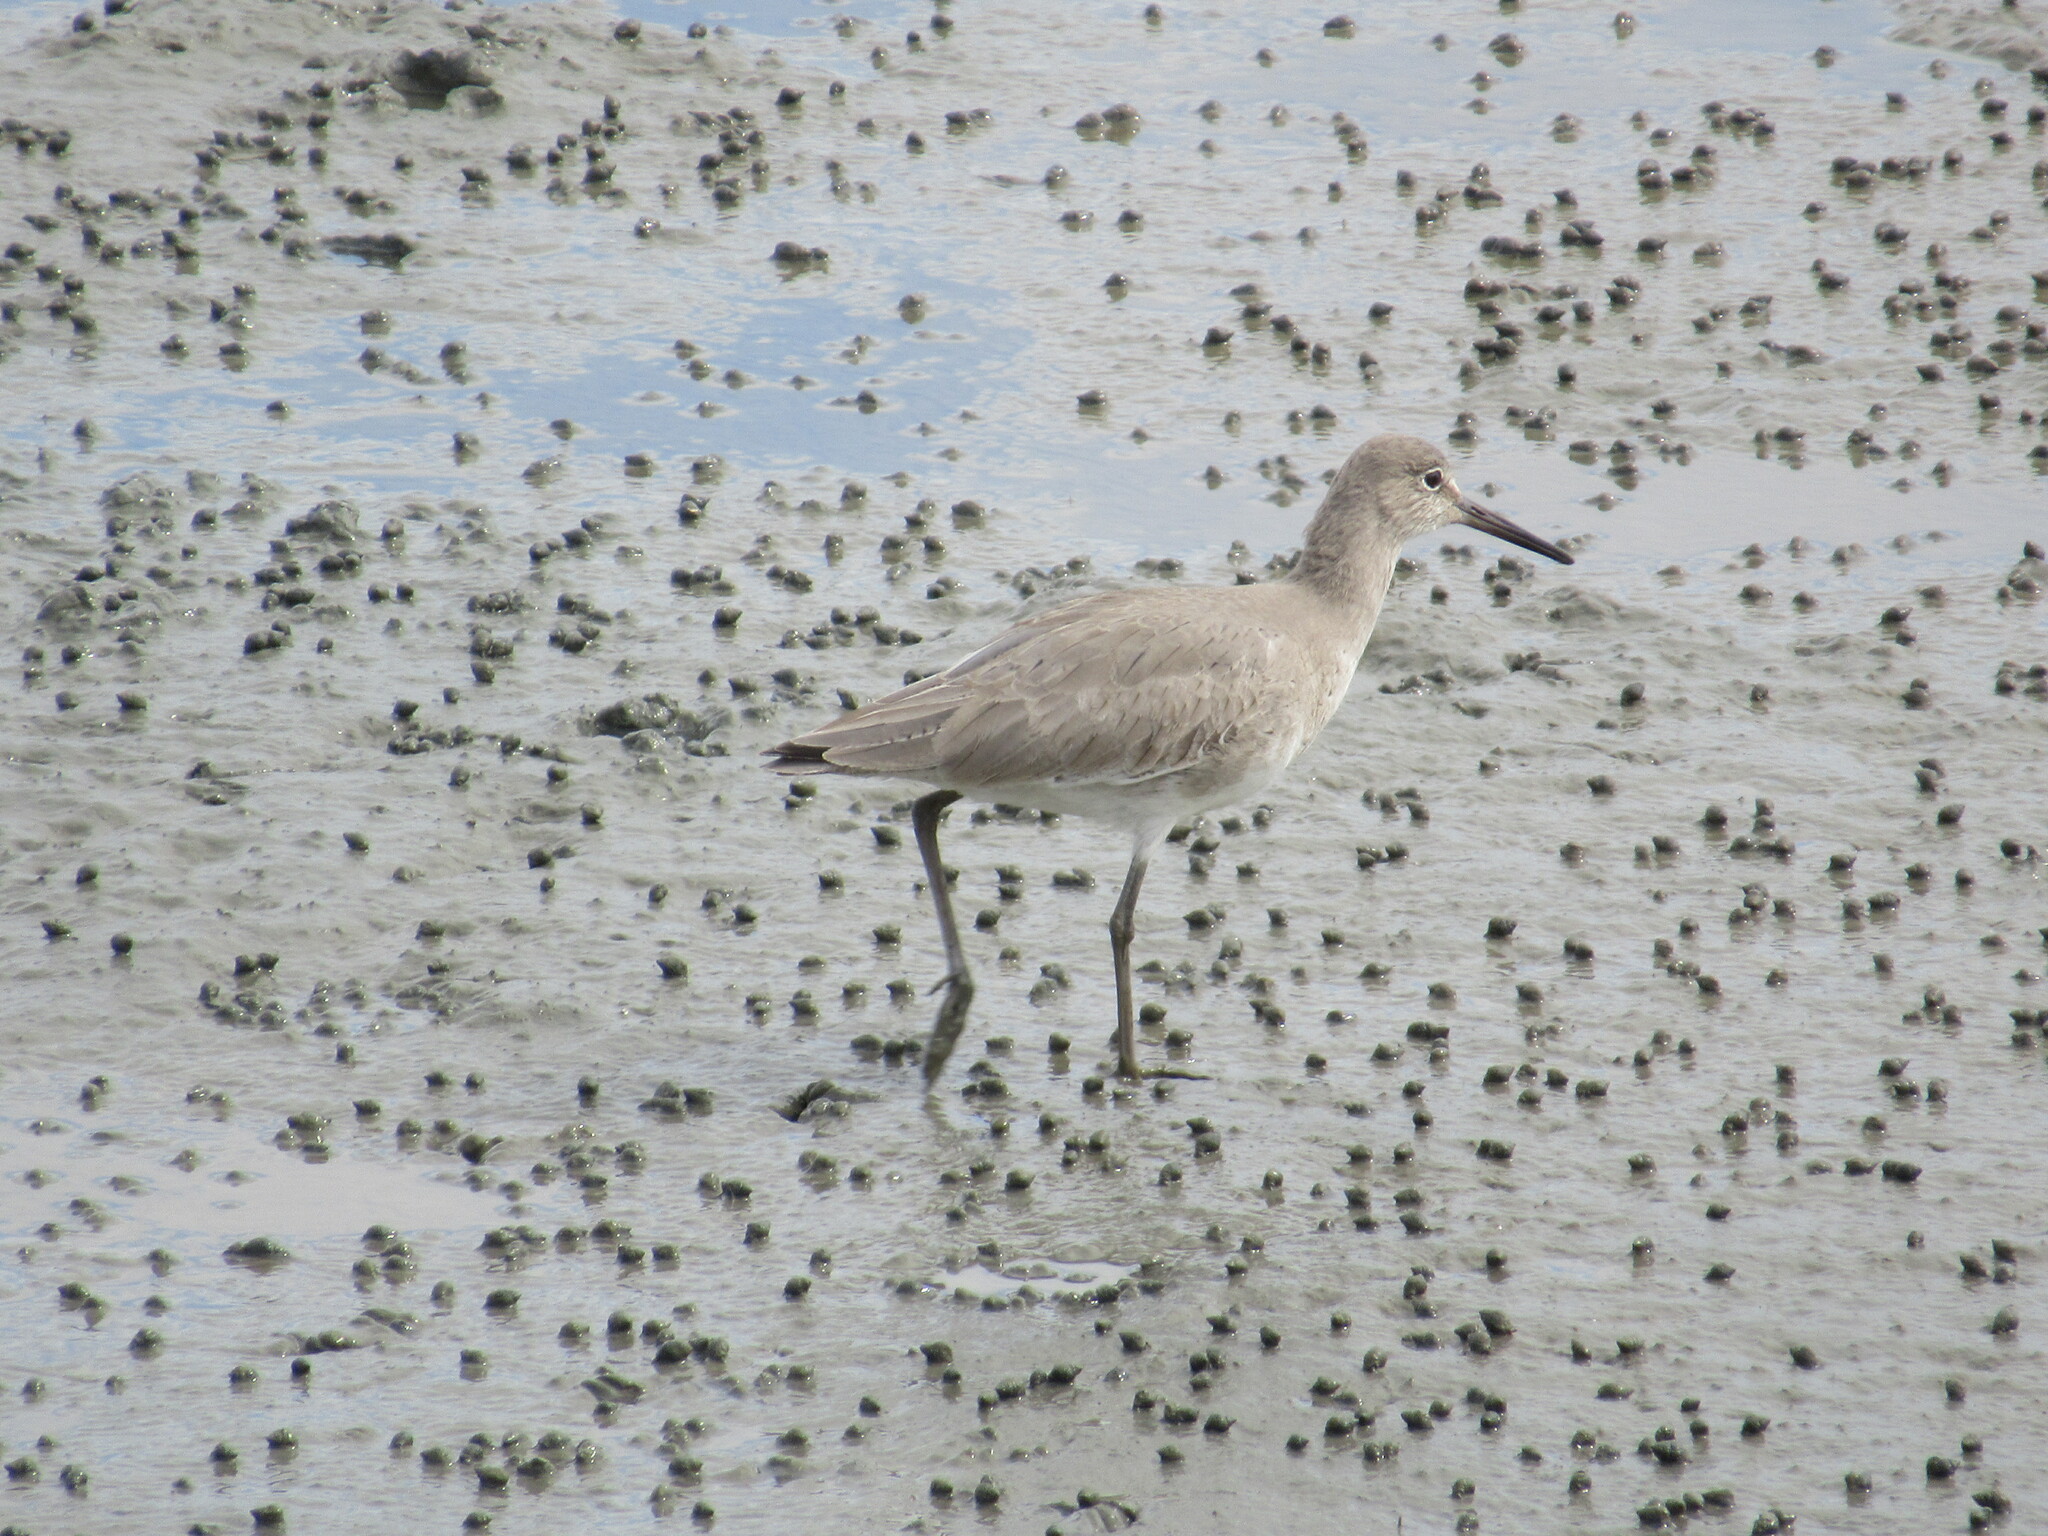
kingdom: Animalia
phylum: Chordata
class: Aves
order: Charadriiformes
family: Scolopacidae
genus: Tringa
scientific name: Tringa semipalmata
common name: Willet
